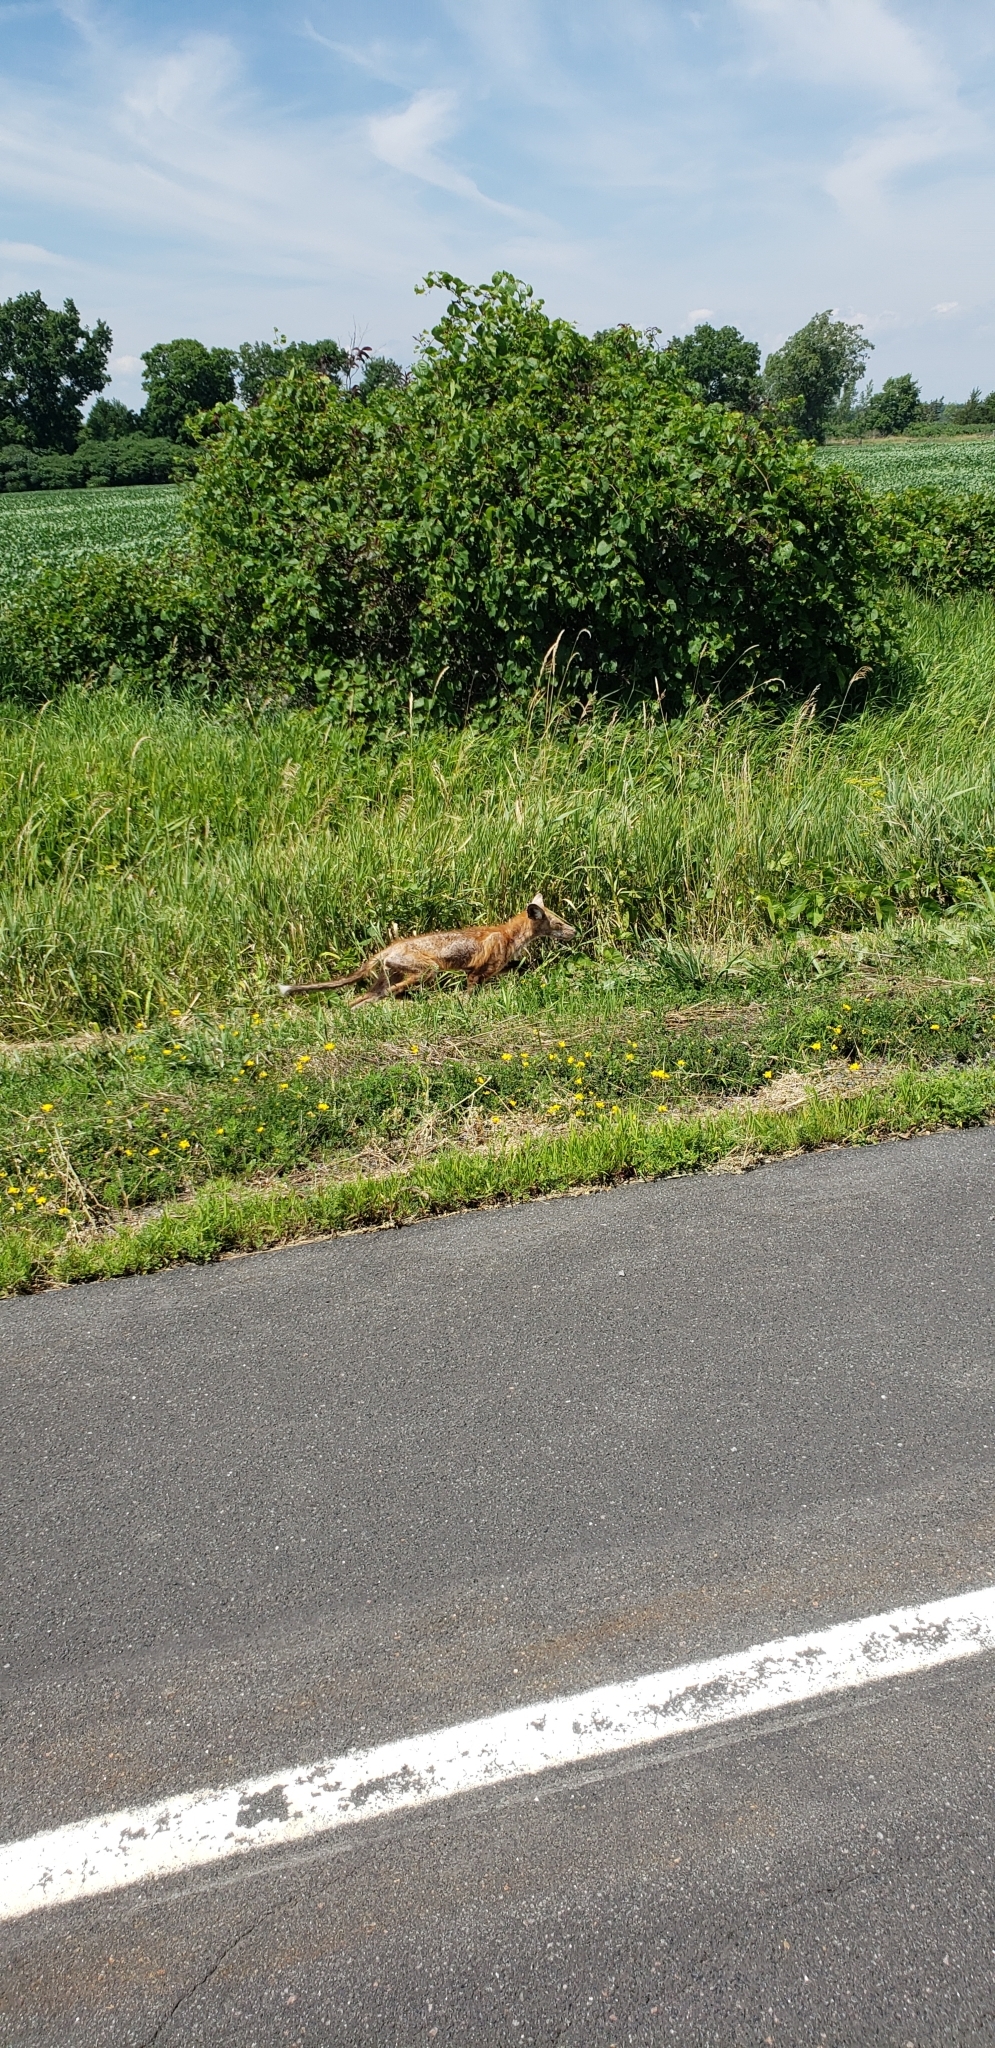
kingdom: Animalia
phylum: Chordata
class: Mammalia
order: Carnivora
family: Canidae
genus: Vulpes
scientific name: Vulpes vulpes
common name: Red fox
